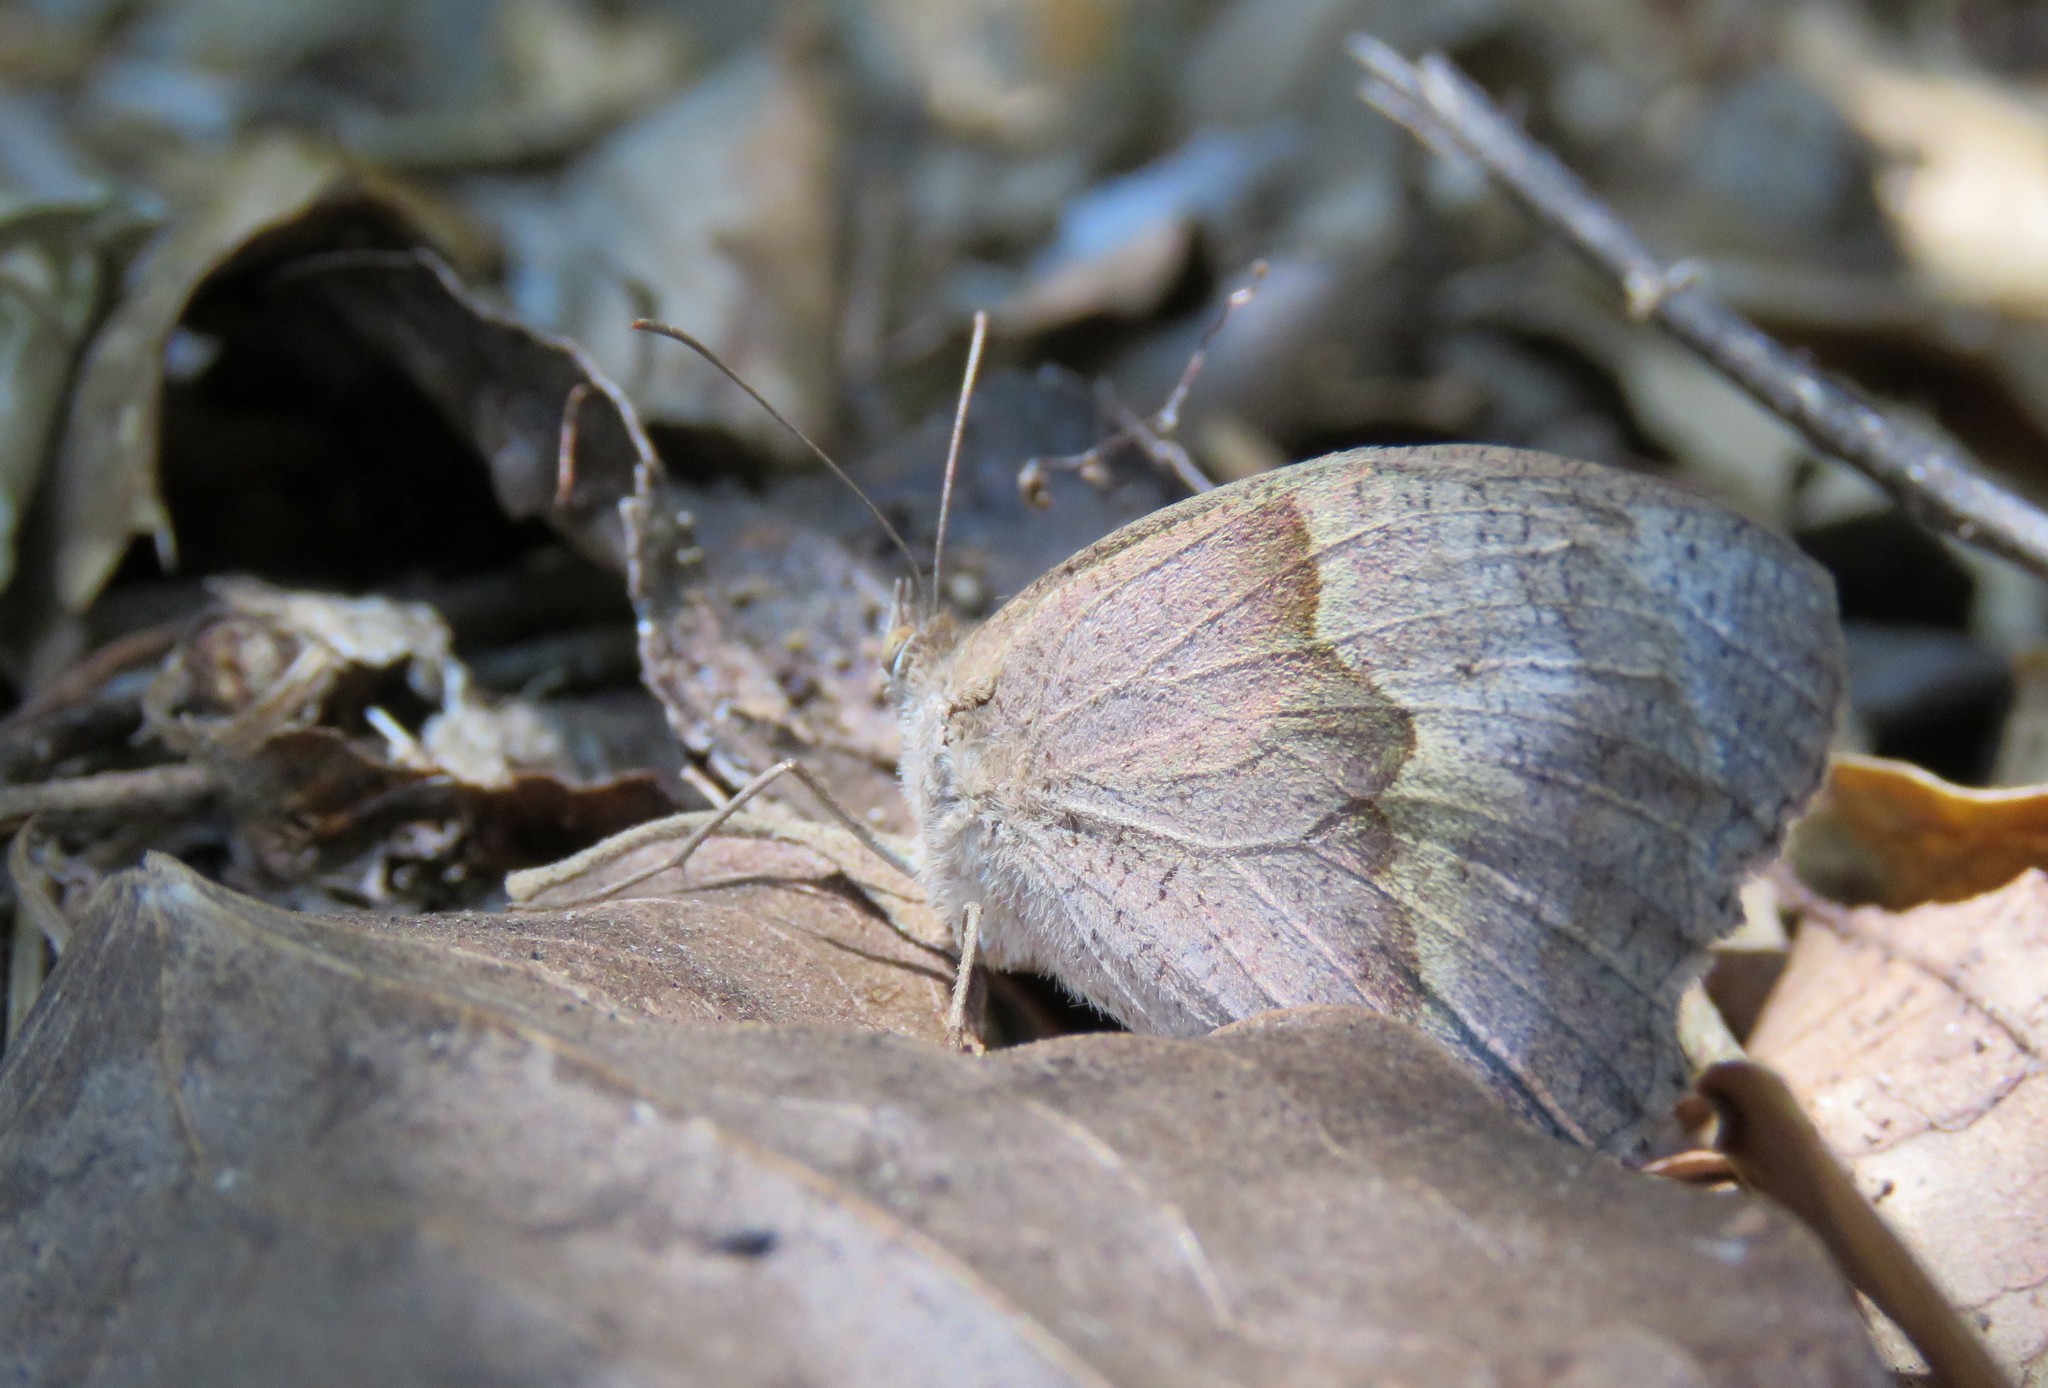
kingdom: Animalia
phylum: Arthropoda
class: Insecta
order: Lepidoptera
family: Nymphalidae
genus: Maniola
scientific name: Maniola jurtina
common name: Meadow brown
